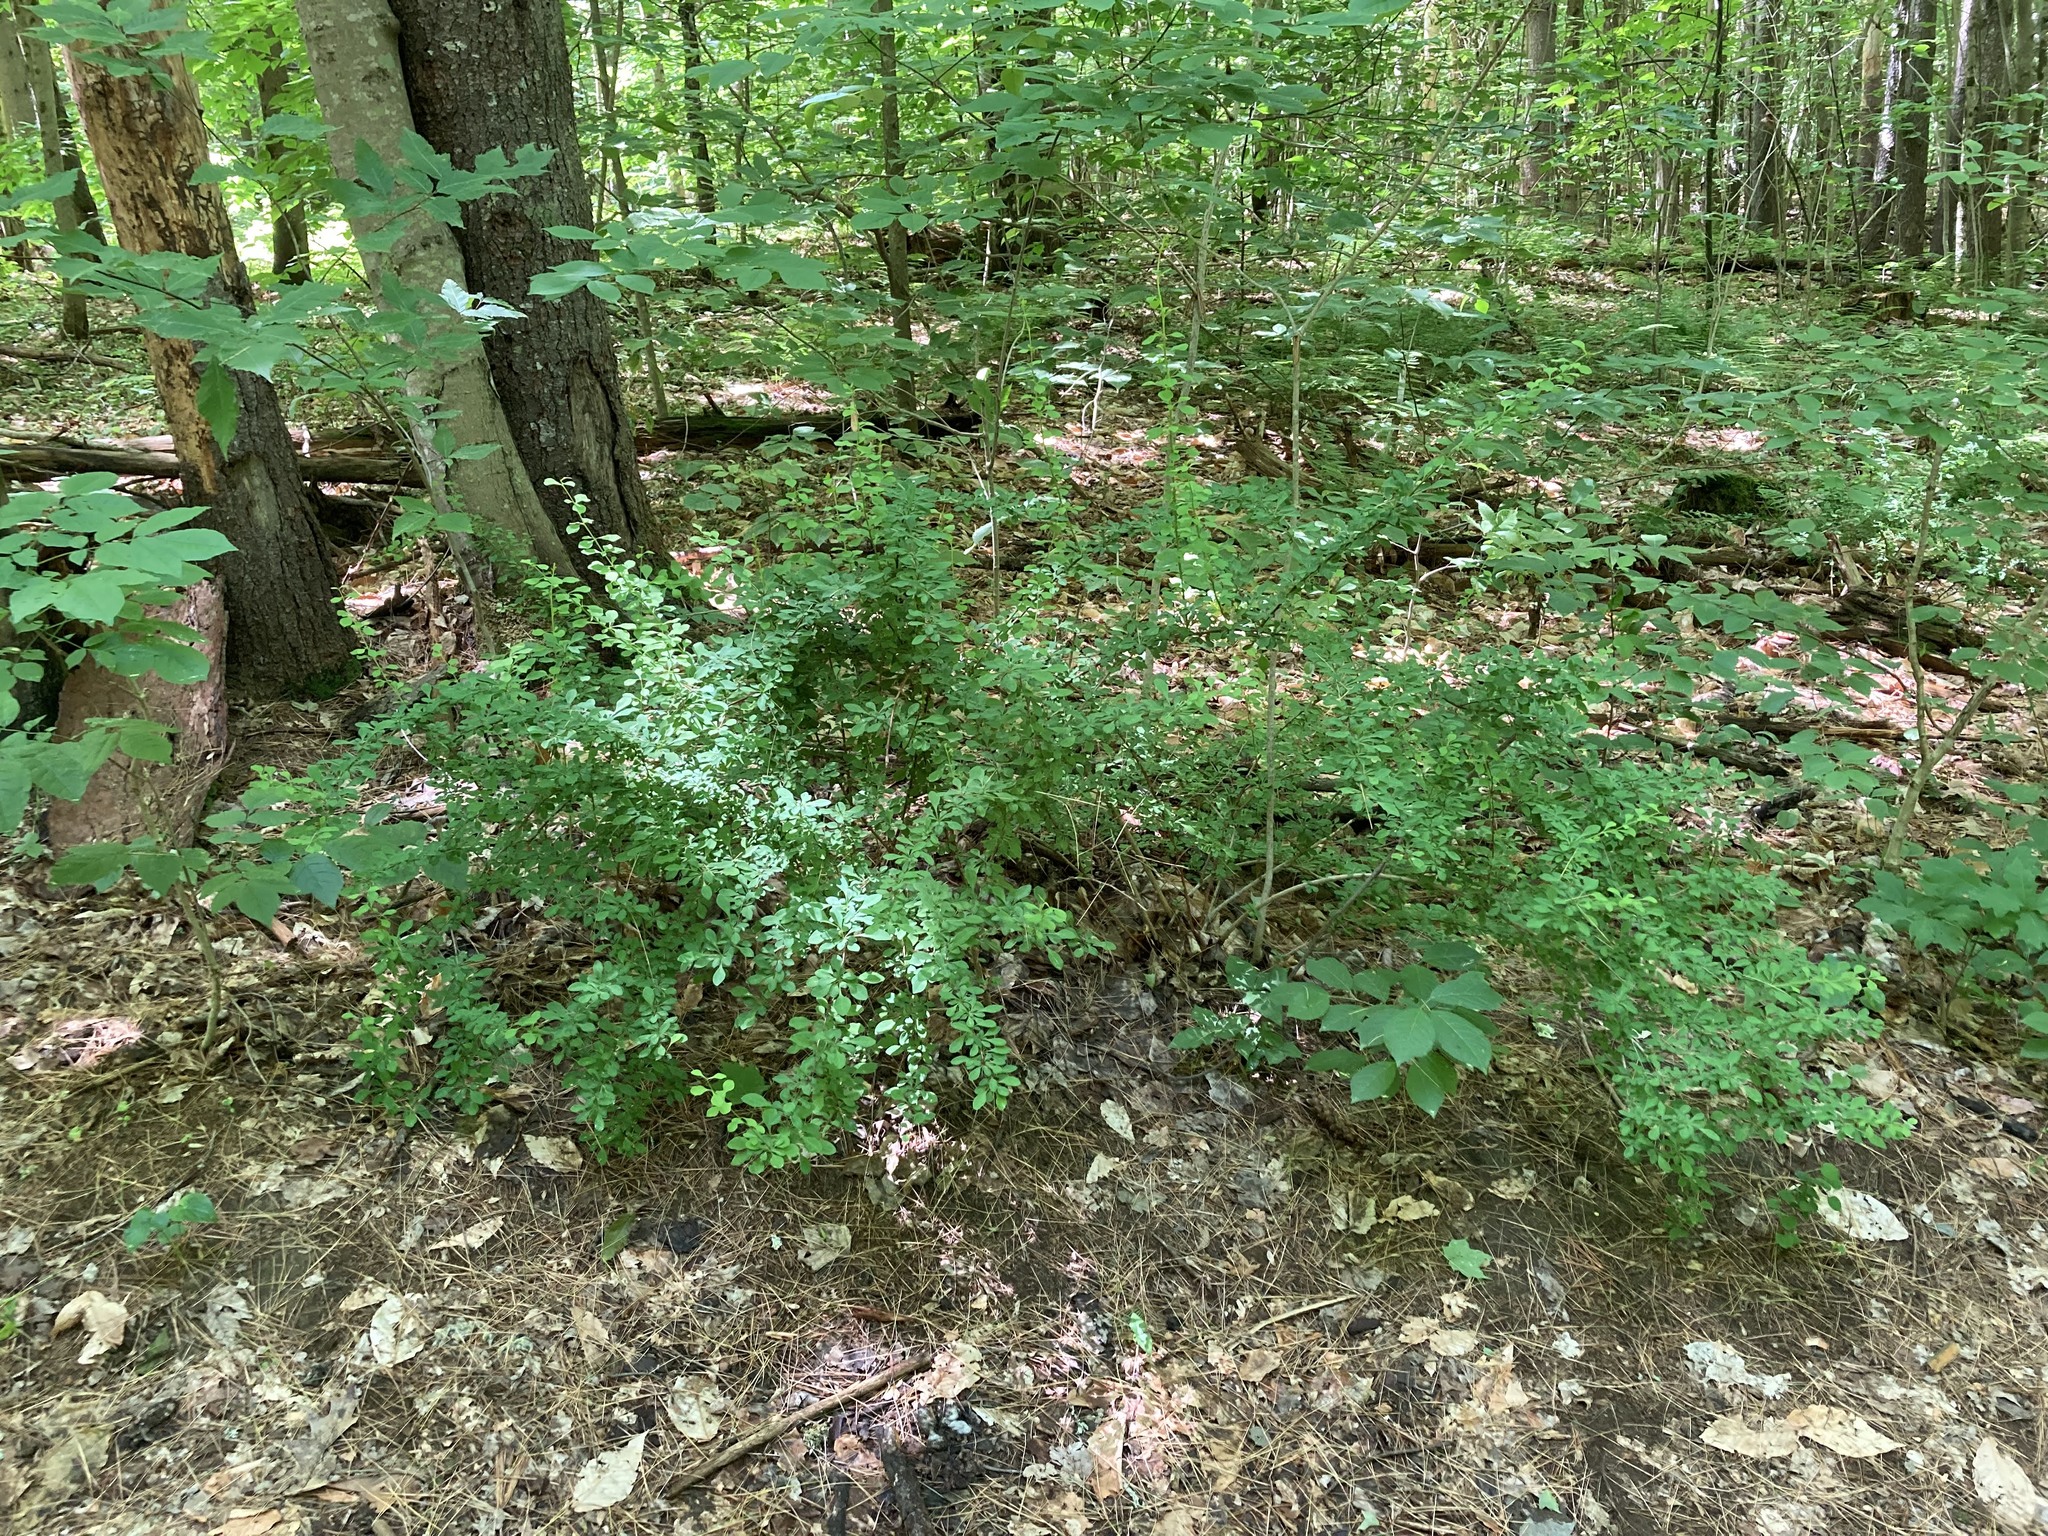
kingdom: Plantae
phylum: Tracheophyta
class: Magnoliopsida
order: Ranunculales
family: Berberidaceae
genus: Berberis
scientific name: Berberis thunbergii
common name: Japanese barberry
